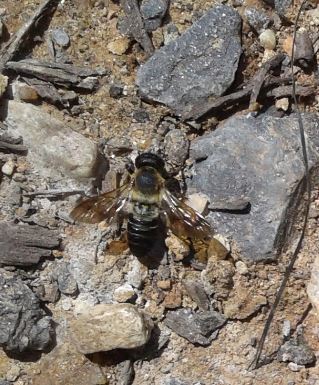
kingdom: Animalia
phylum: Arthropoda
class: Insecta
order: Hymenoptera
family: Megachilidae
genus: Megachile
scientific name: Megachile sculpturalis
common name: Sculptured resin bee
